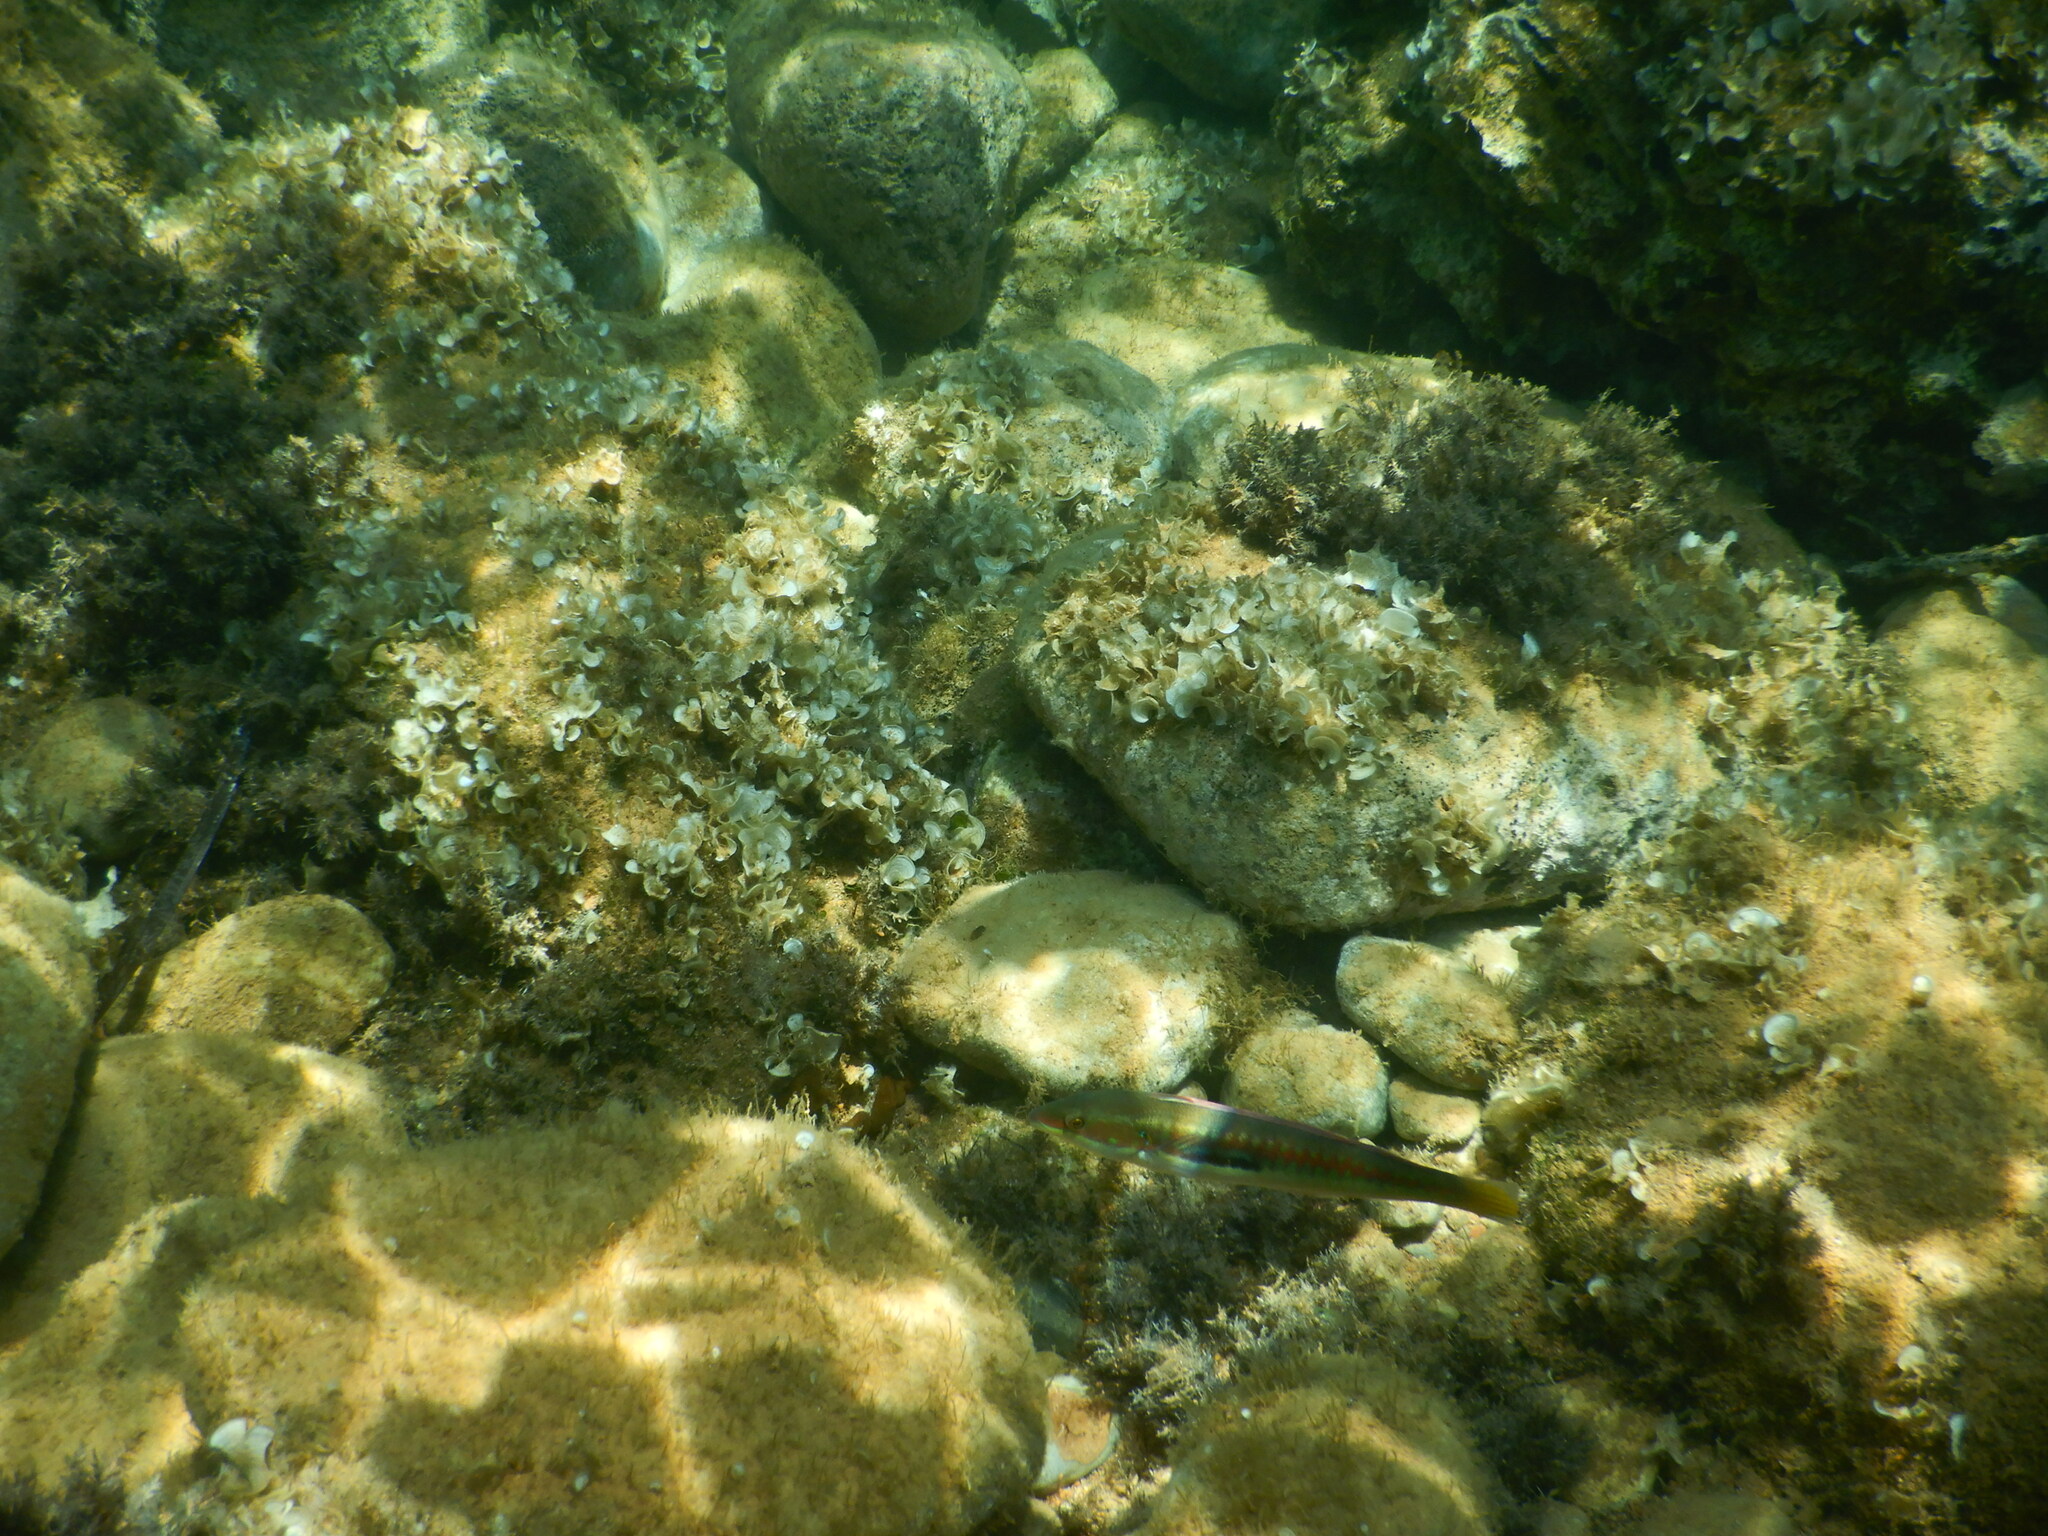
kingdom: Animalia
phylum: Chordata
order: Perciformes
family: Labridae
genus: Coris
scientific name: Coris julis
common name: Rainbow wrasse
